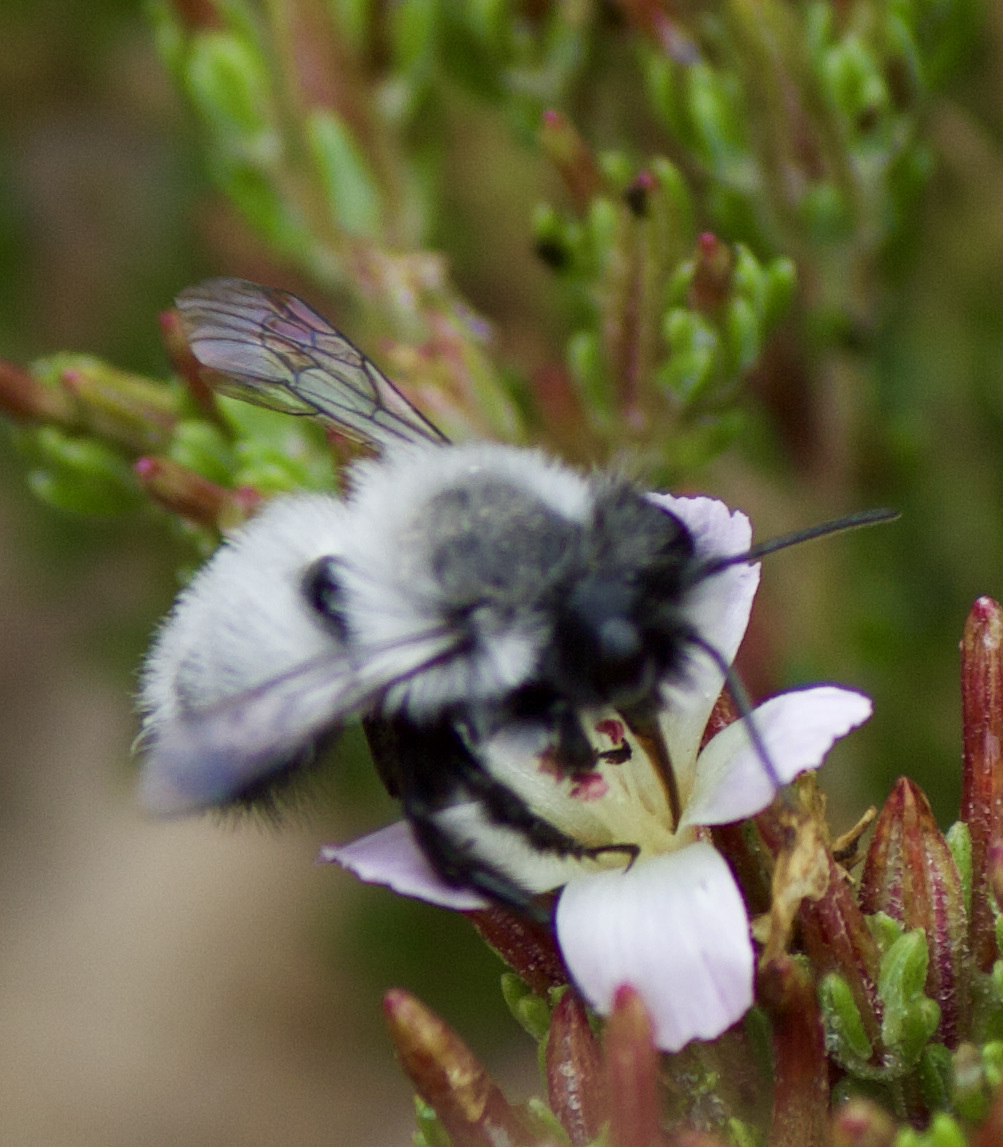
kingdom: Animalia
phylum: Arthropoda
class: Insecta
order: Hymenoptera
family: Megachilidae
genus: Megachile
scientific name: Megachile saulcyi
